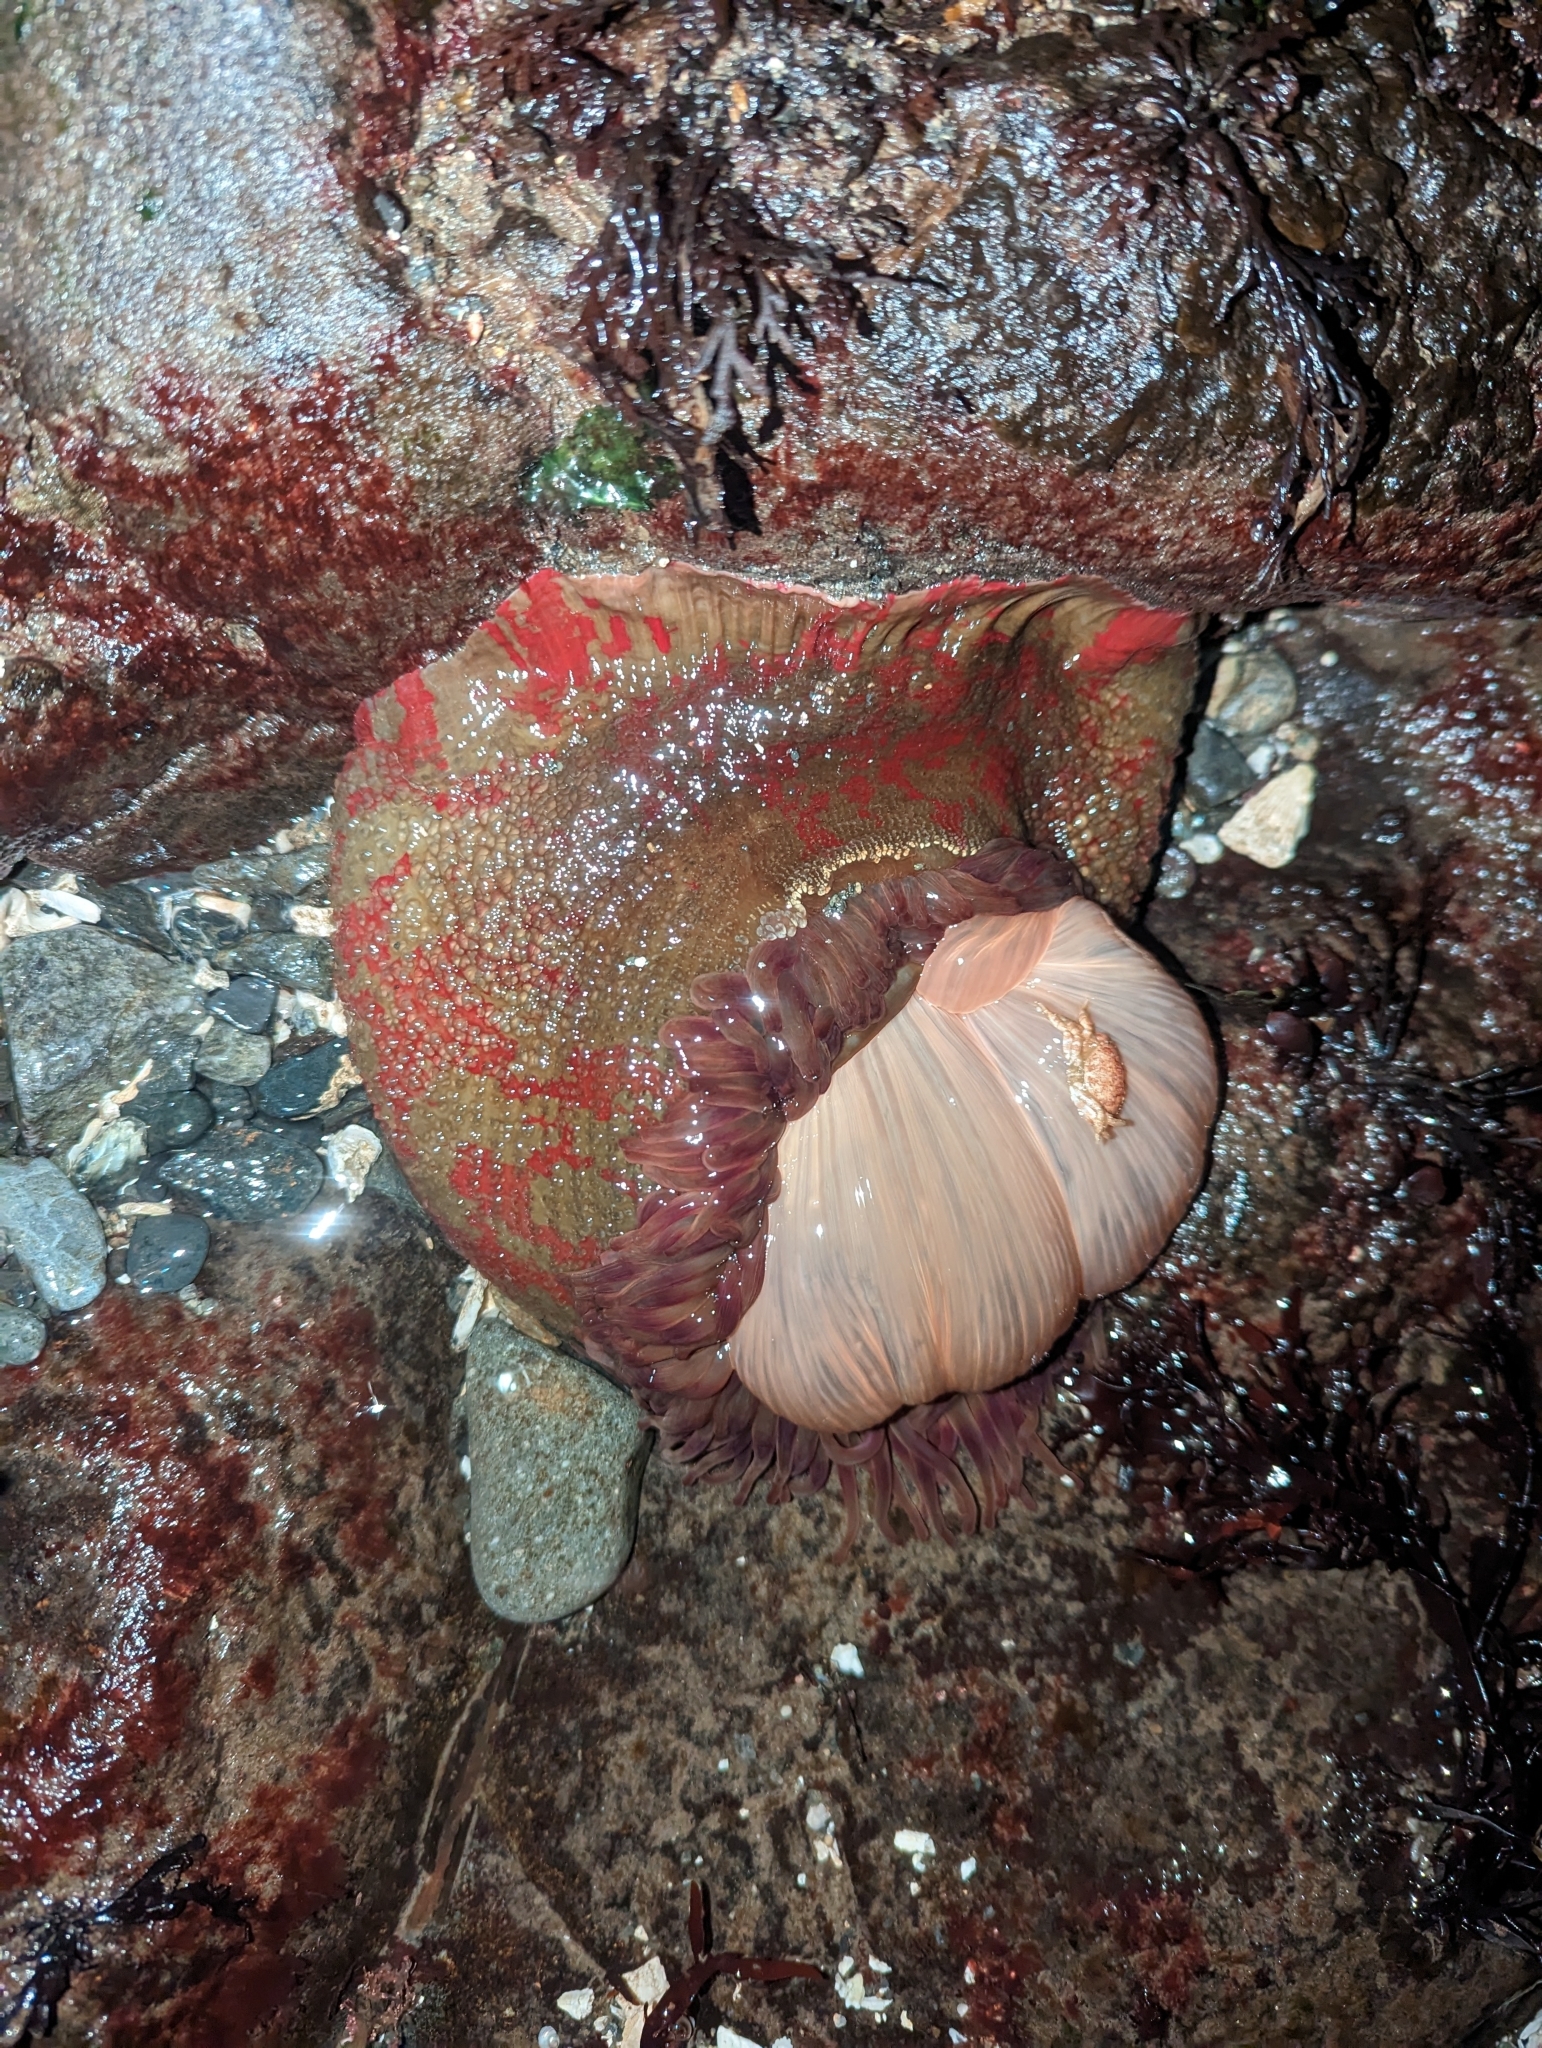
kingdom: Animalia
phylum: Cnidaria
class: Anthozoa
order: Actiniaria
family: Actiniidae
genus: Urticina
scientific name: Urticina grebelnyi
